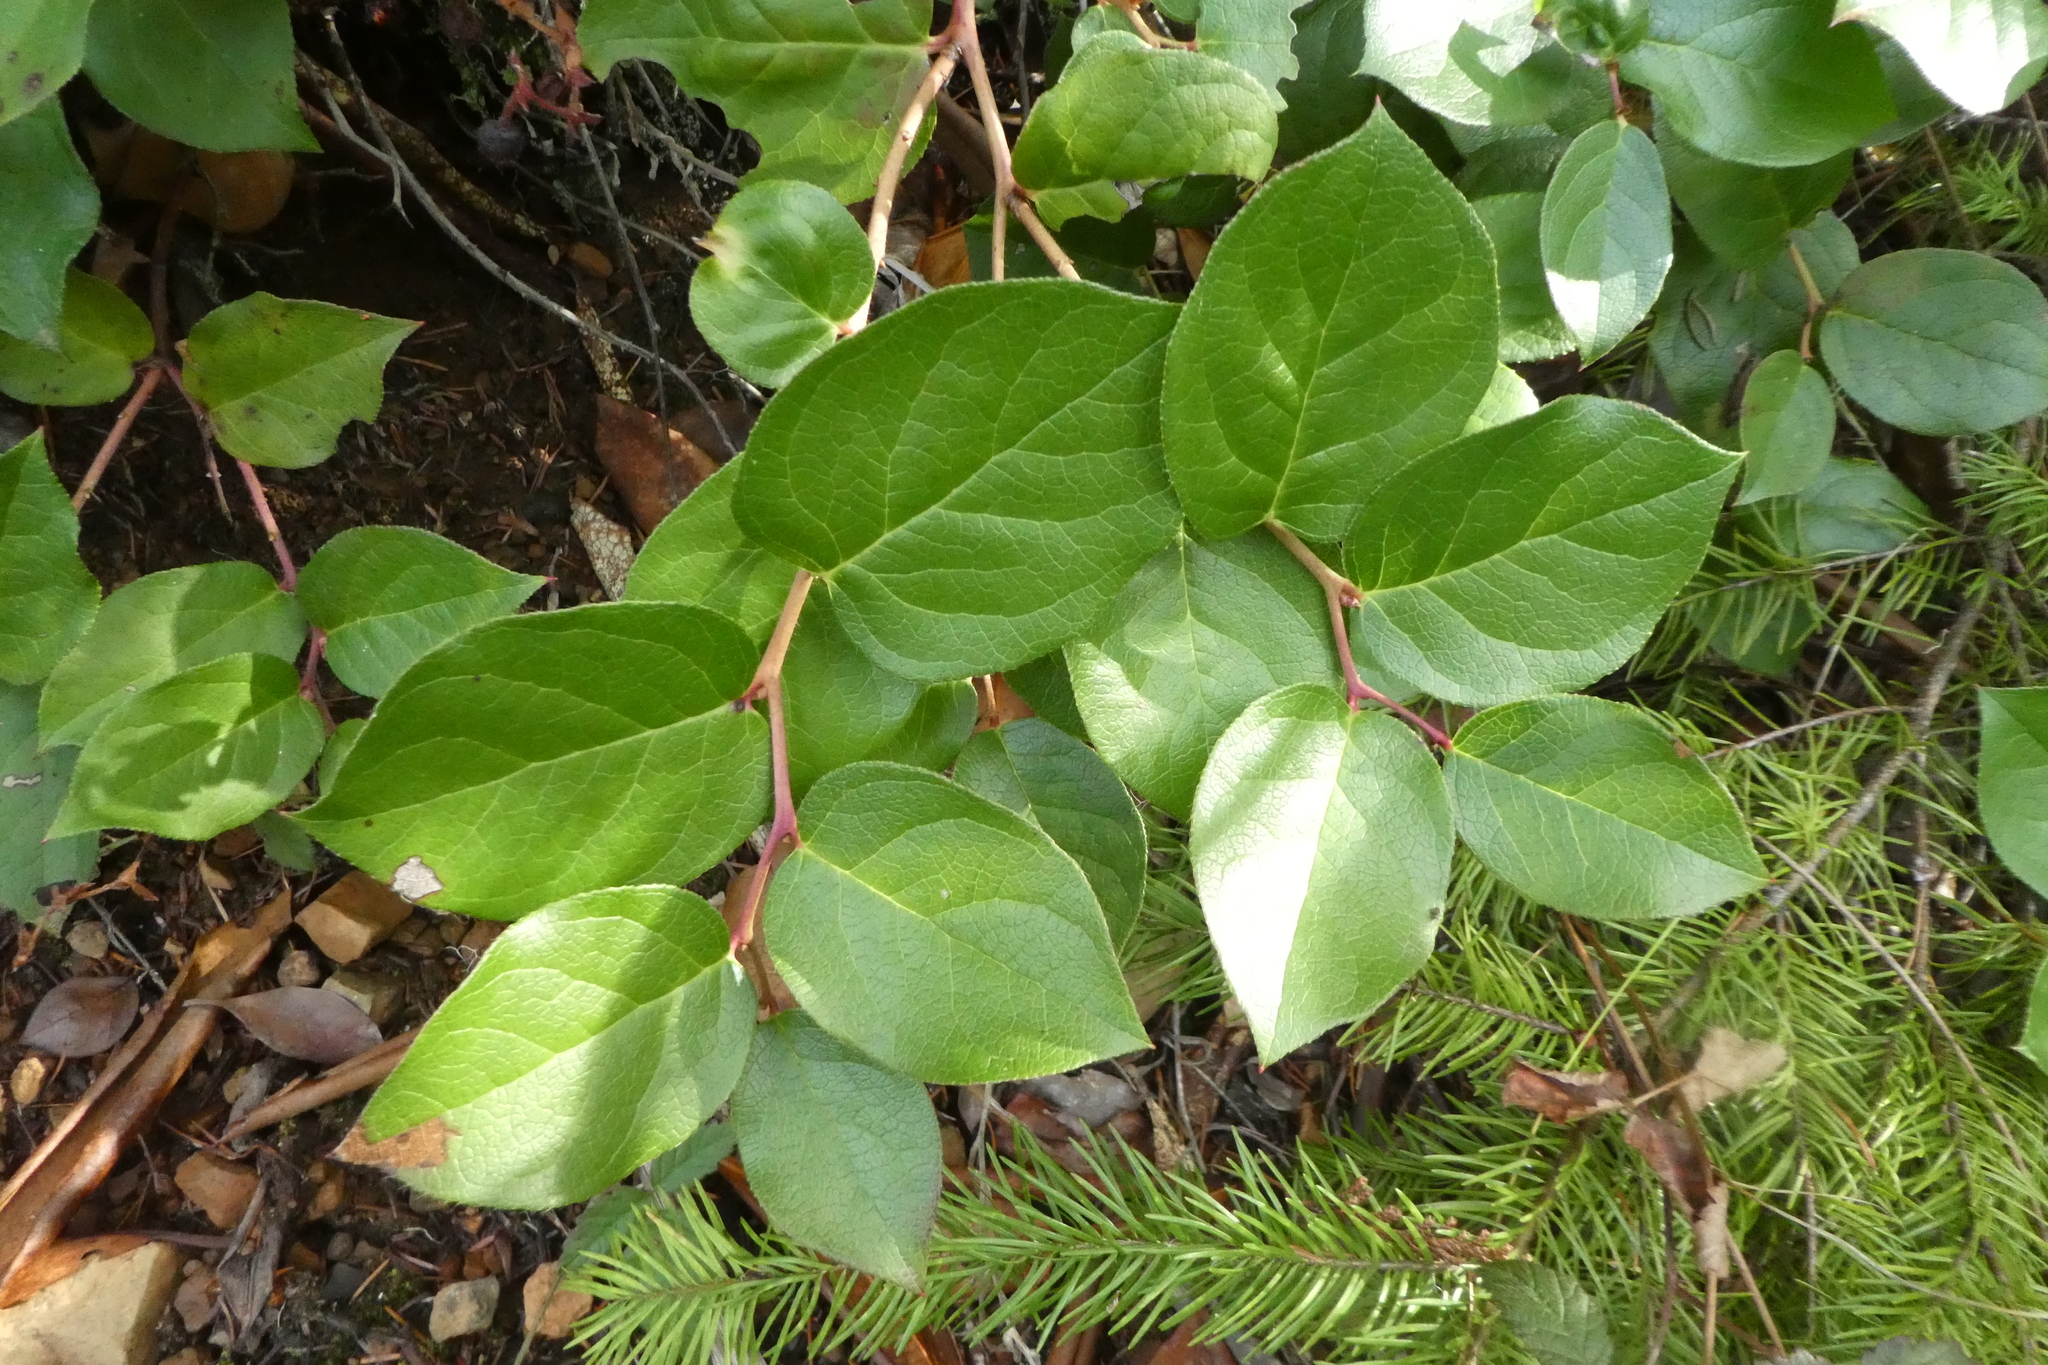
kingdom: Plantae
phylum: Tracheophyta
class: Magnoliopsida
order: Ericales
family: Ericaceae
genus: Gaultheria
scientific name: Gaultheria shallon
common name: Shallon
